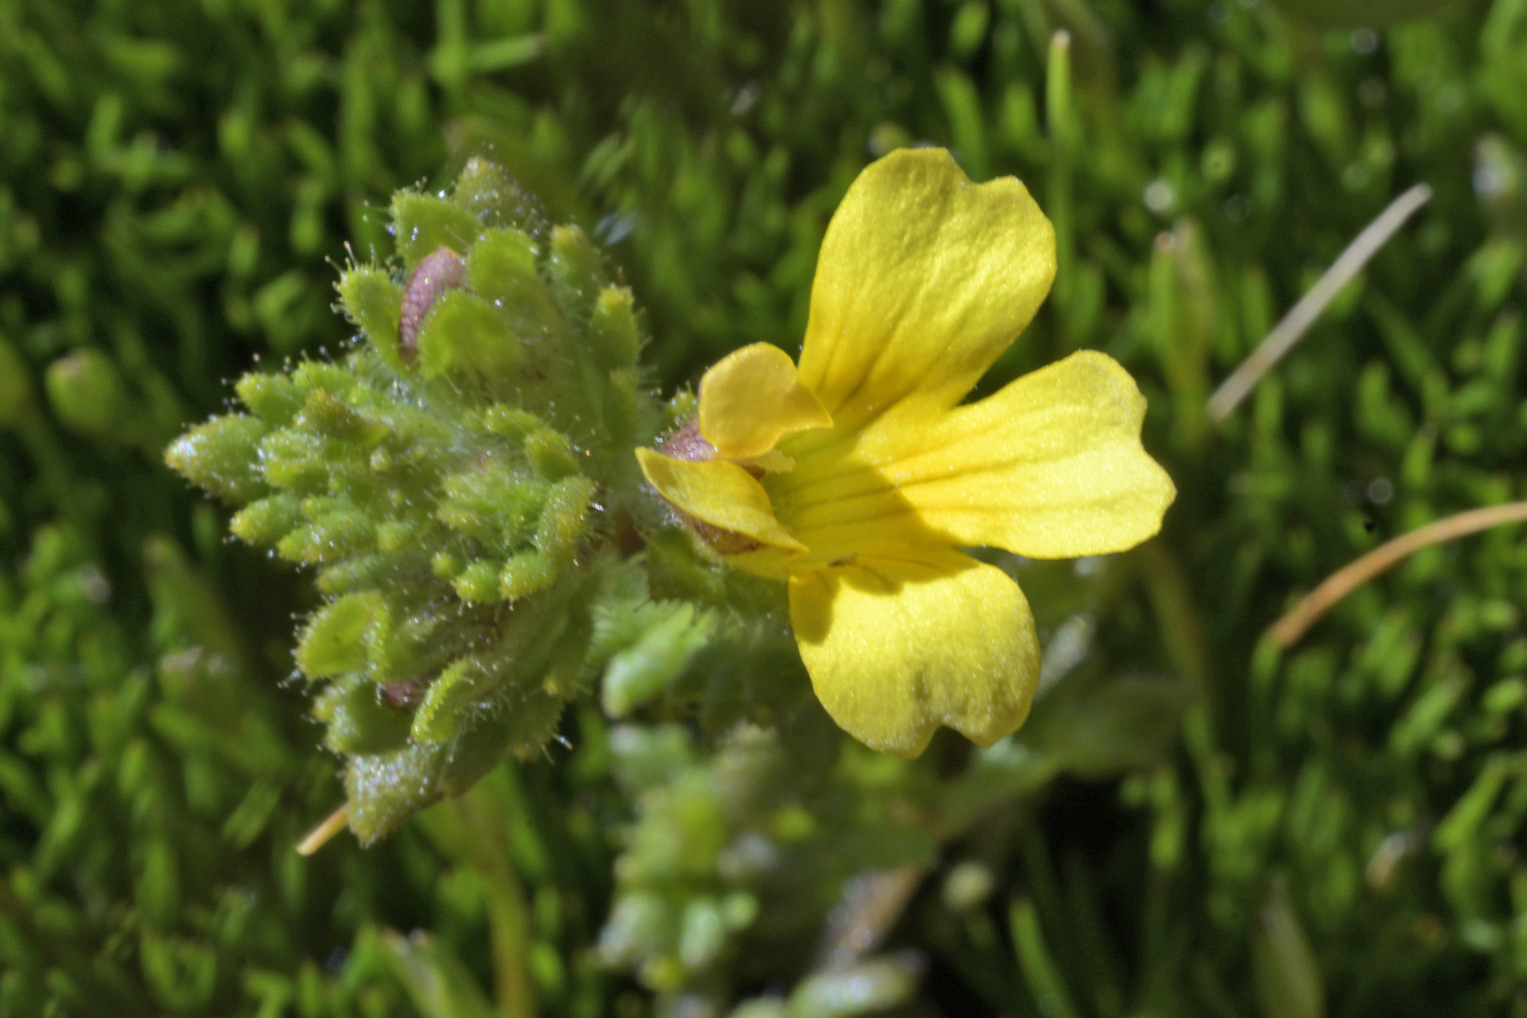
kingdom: Plantae
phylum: Tracheophyta
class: Magnoliopsida
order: Lamiales
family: Orobanchaceae
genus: Euphrasia
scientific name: Euphrasia cockayneana
